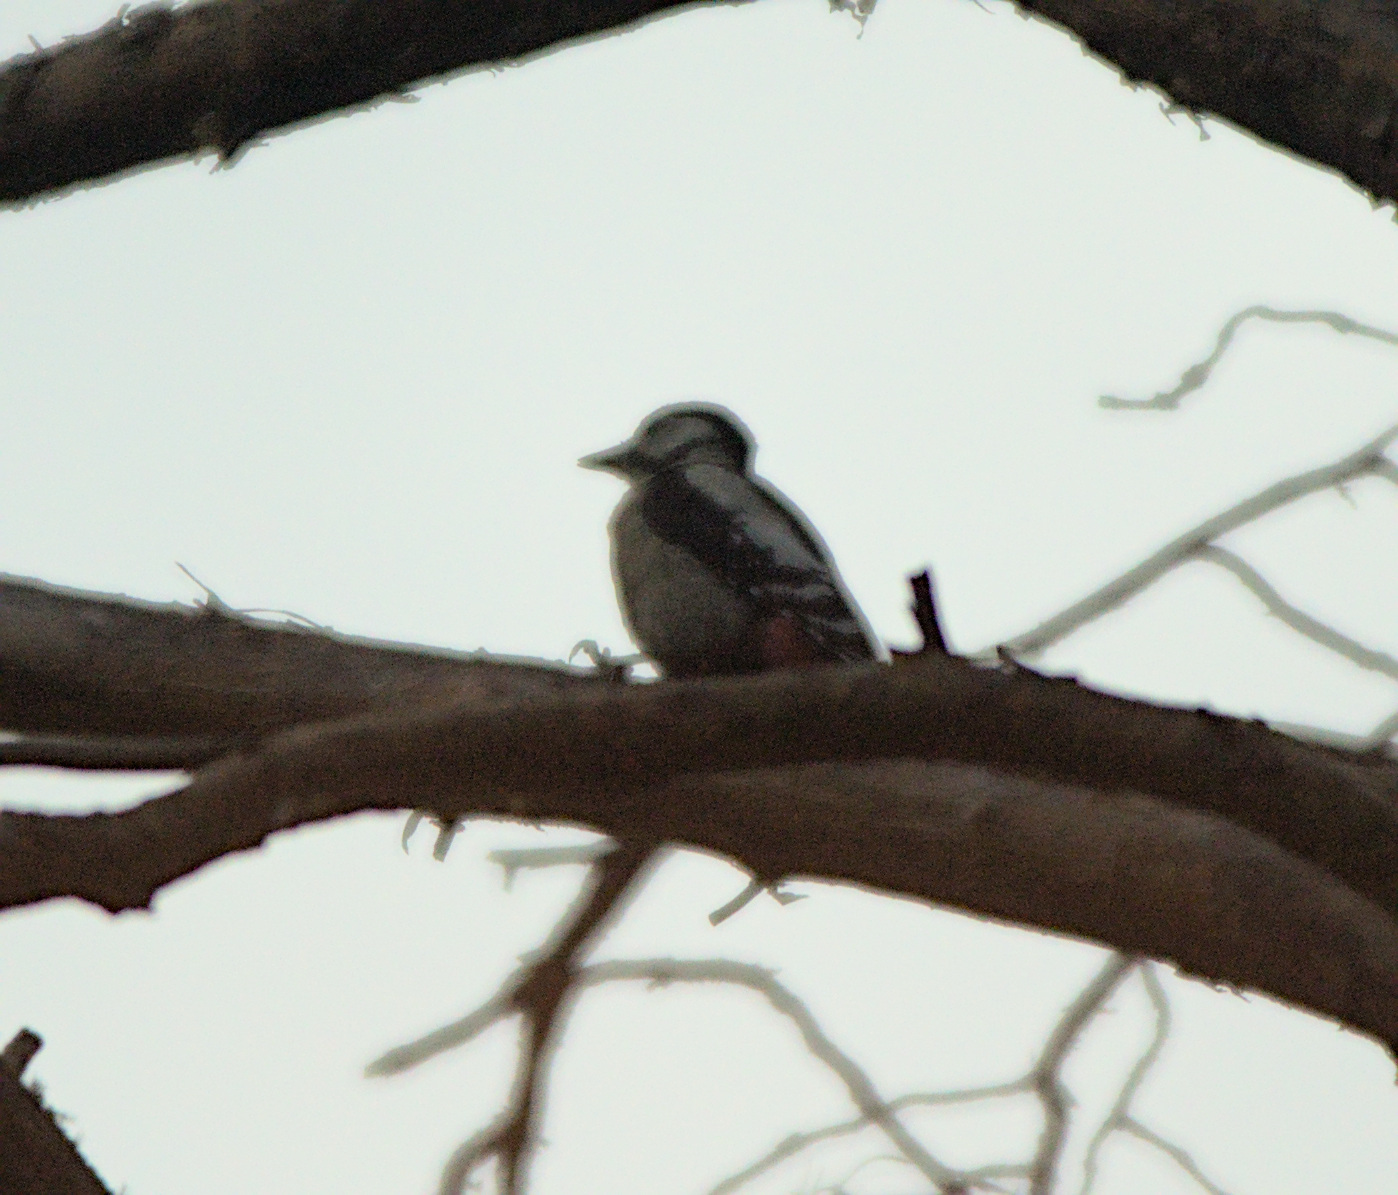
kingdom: Animalia
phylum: Chordata
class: Aves
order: Piciformes
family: Picidae
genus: Dendrocopos
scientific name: Dendrocopos major
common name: Great spotted woodpecker
